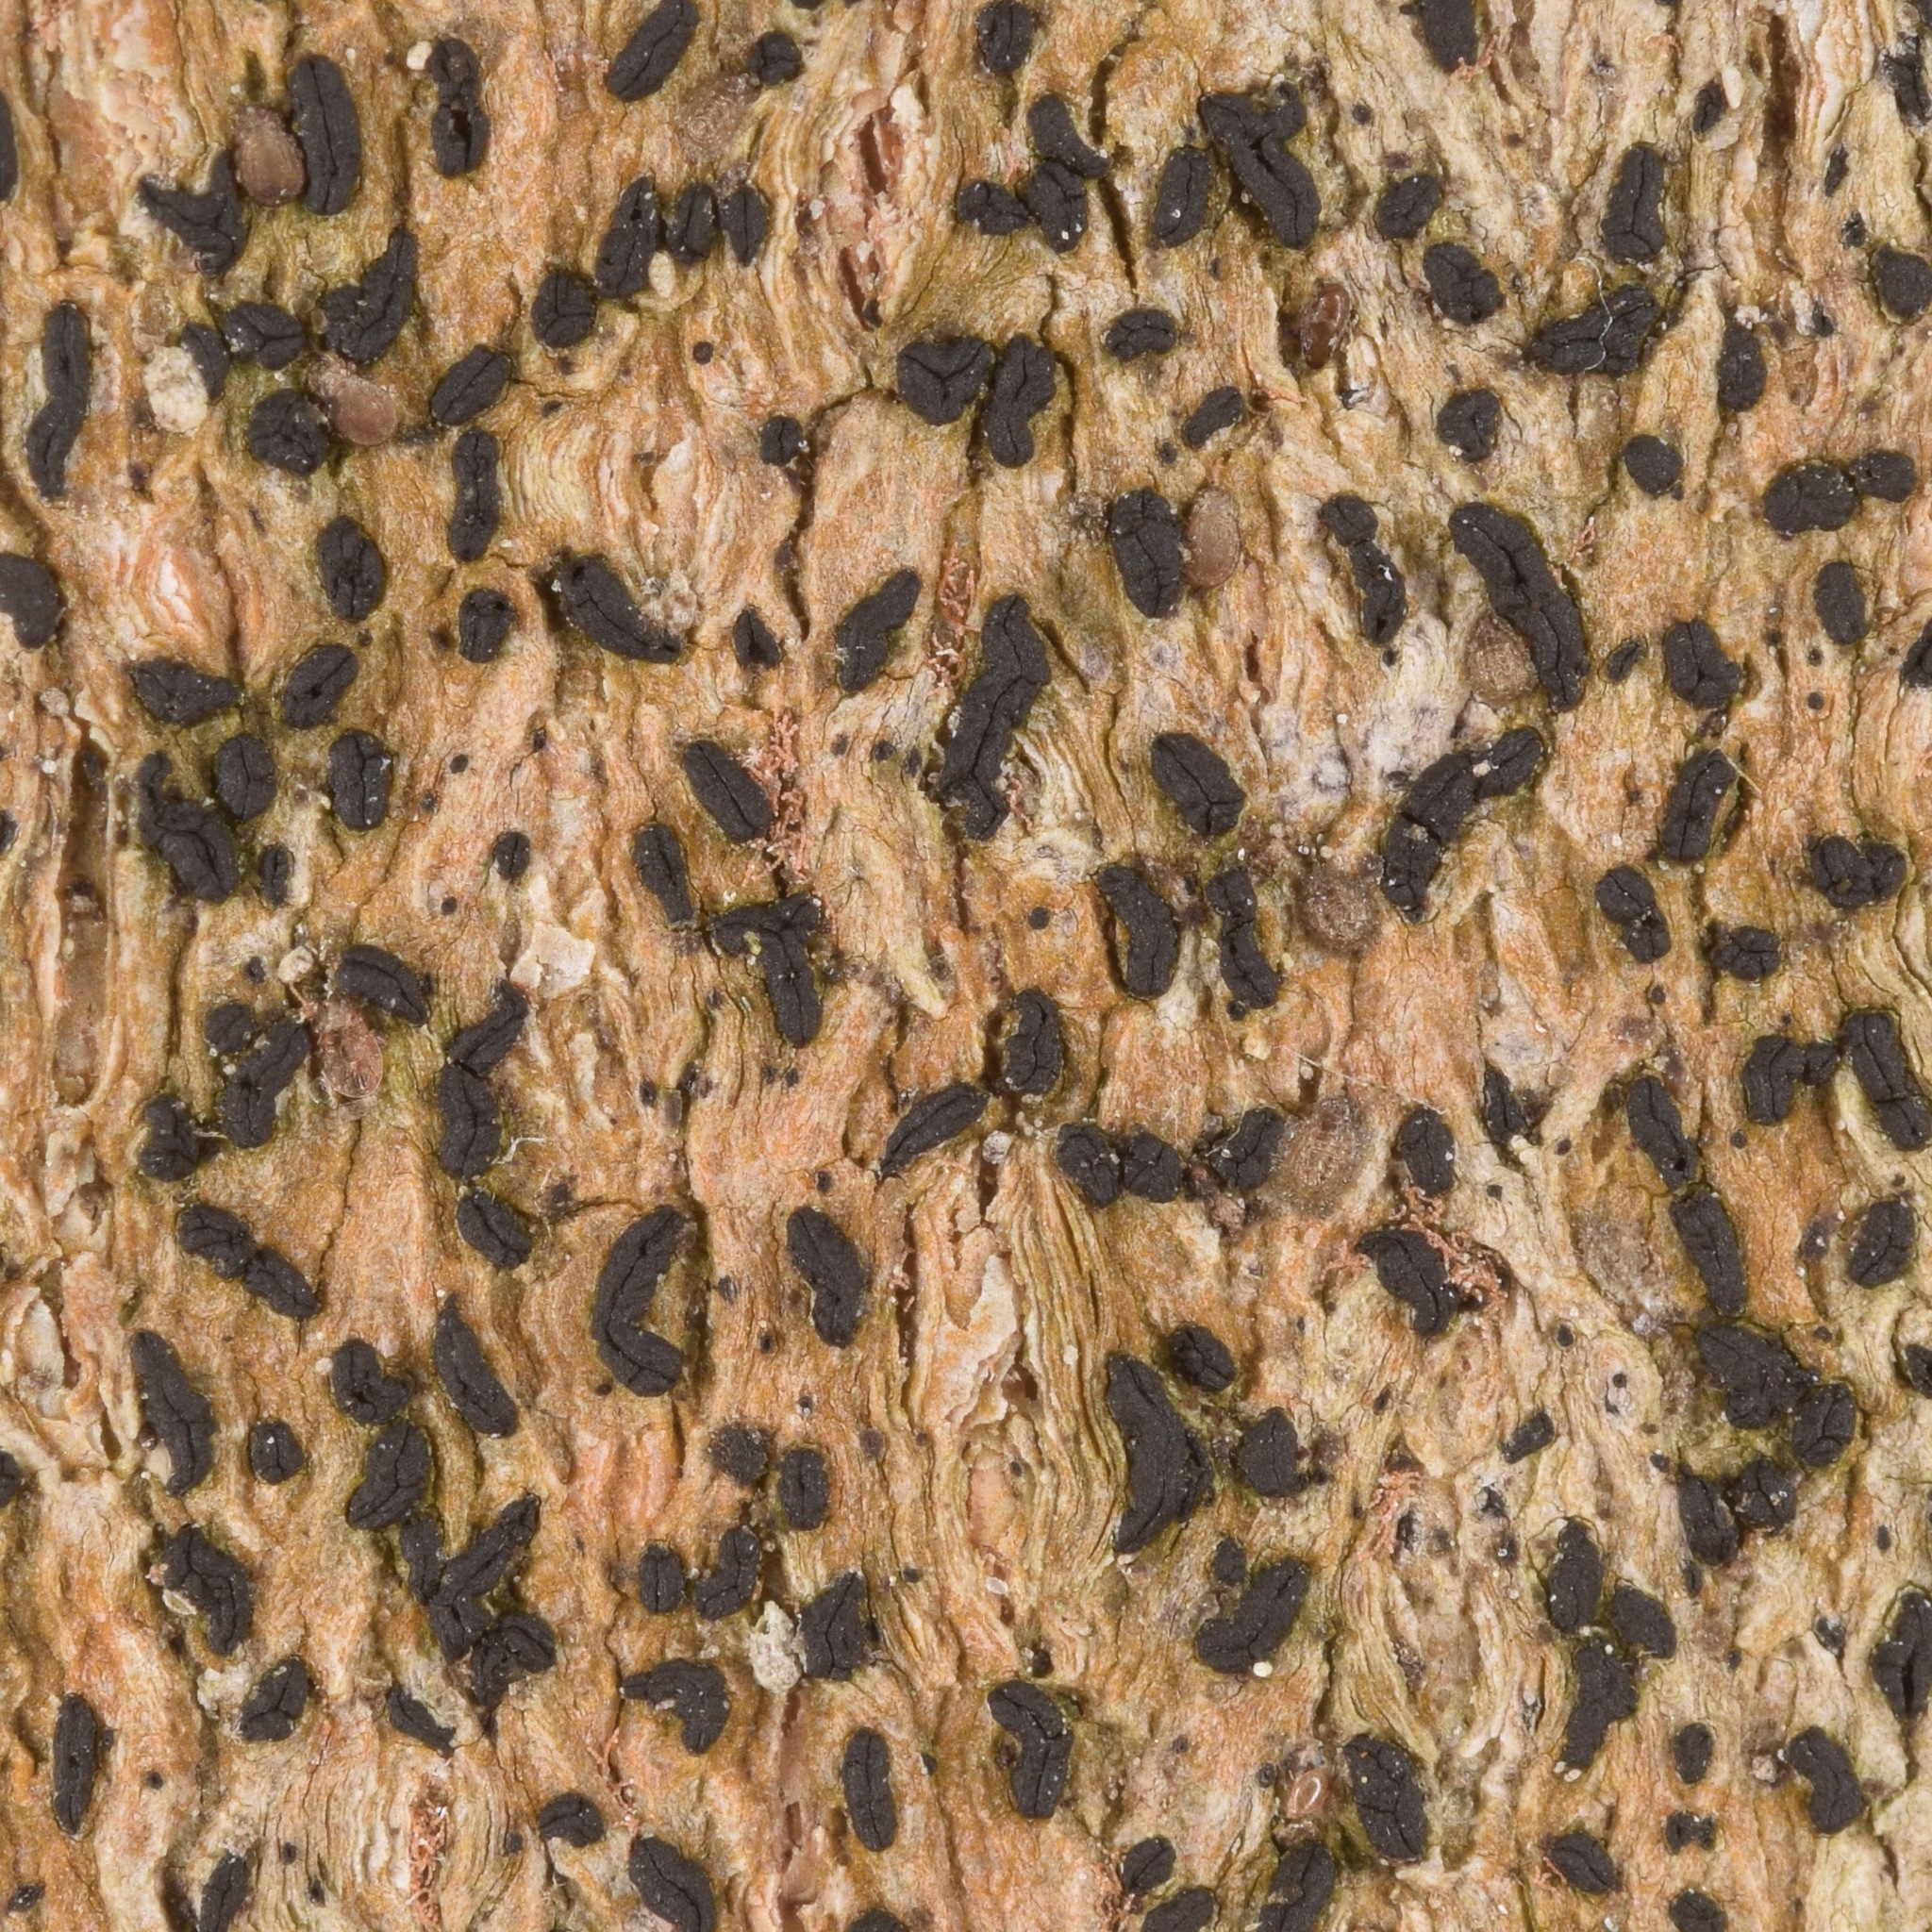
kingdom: Fungi
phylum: Ascomycota
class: Arthoniomycetes
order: Arthoniales
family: Lecanographaceae
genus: Zwackhia
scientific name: Zwackhia viridis
